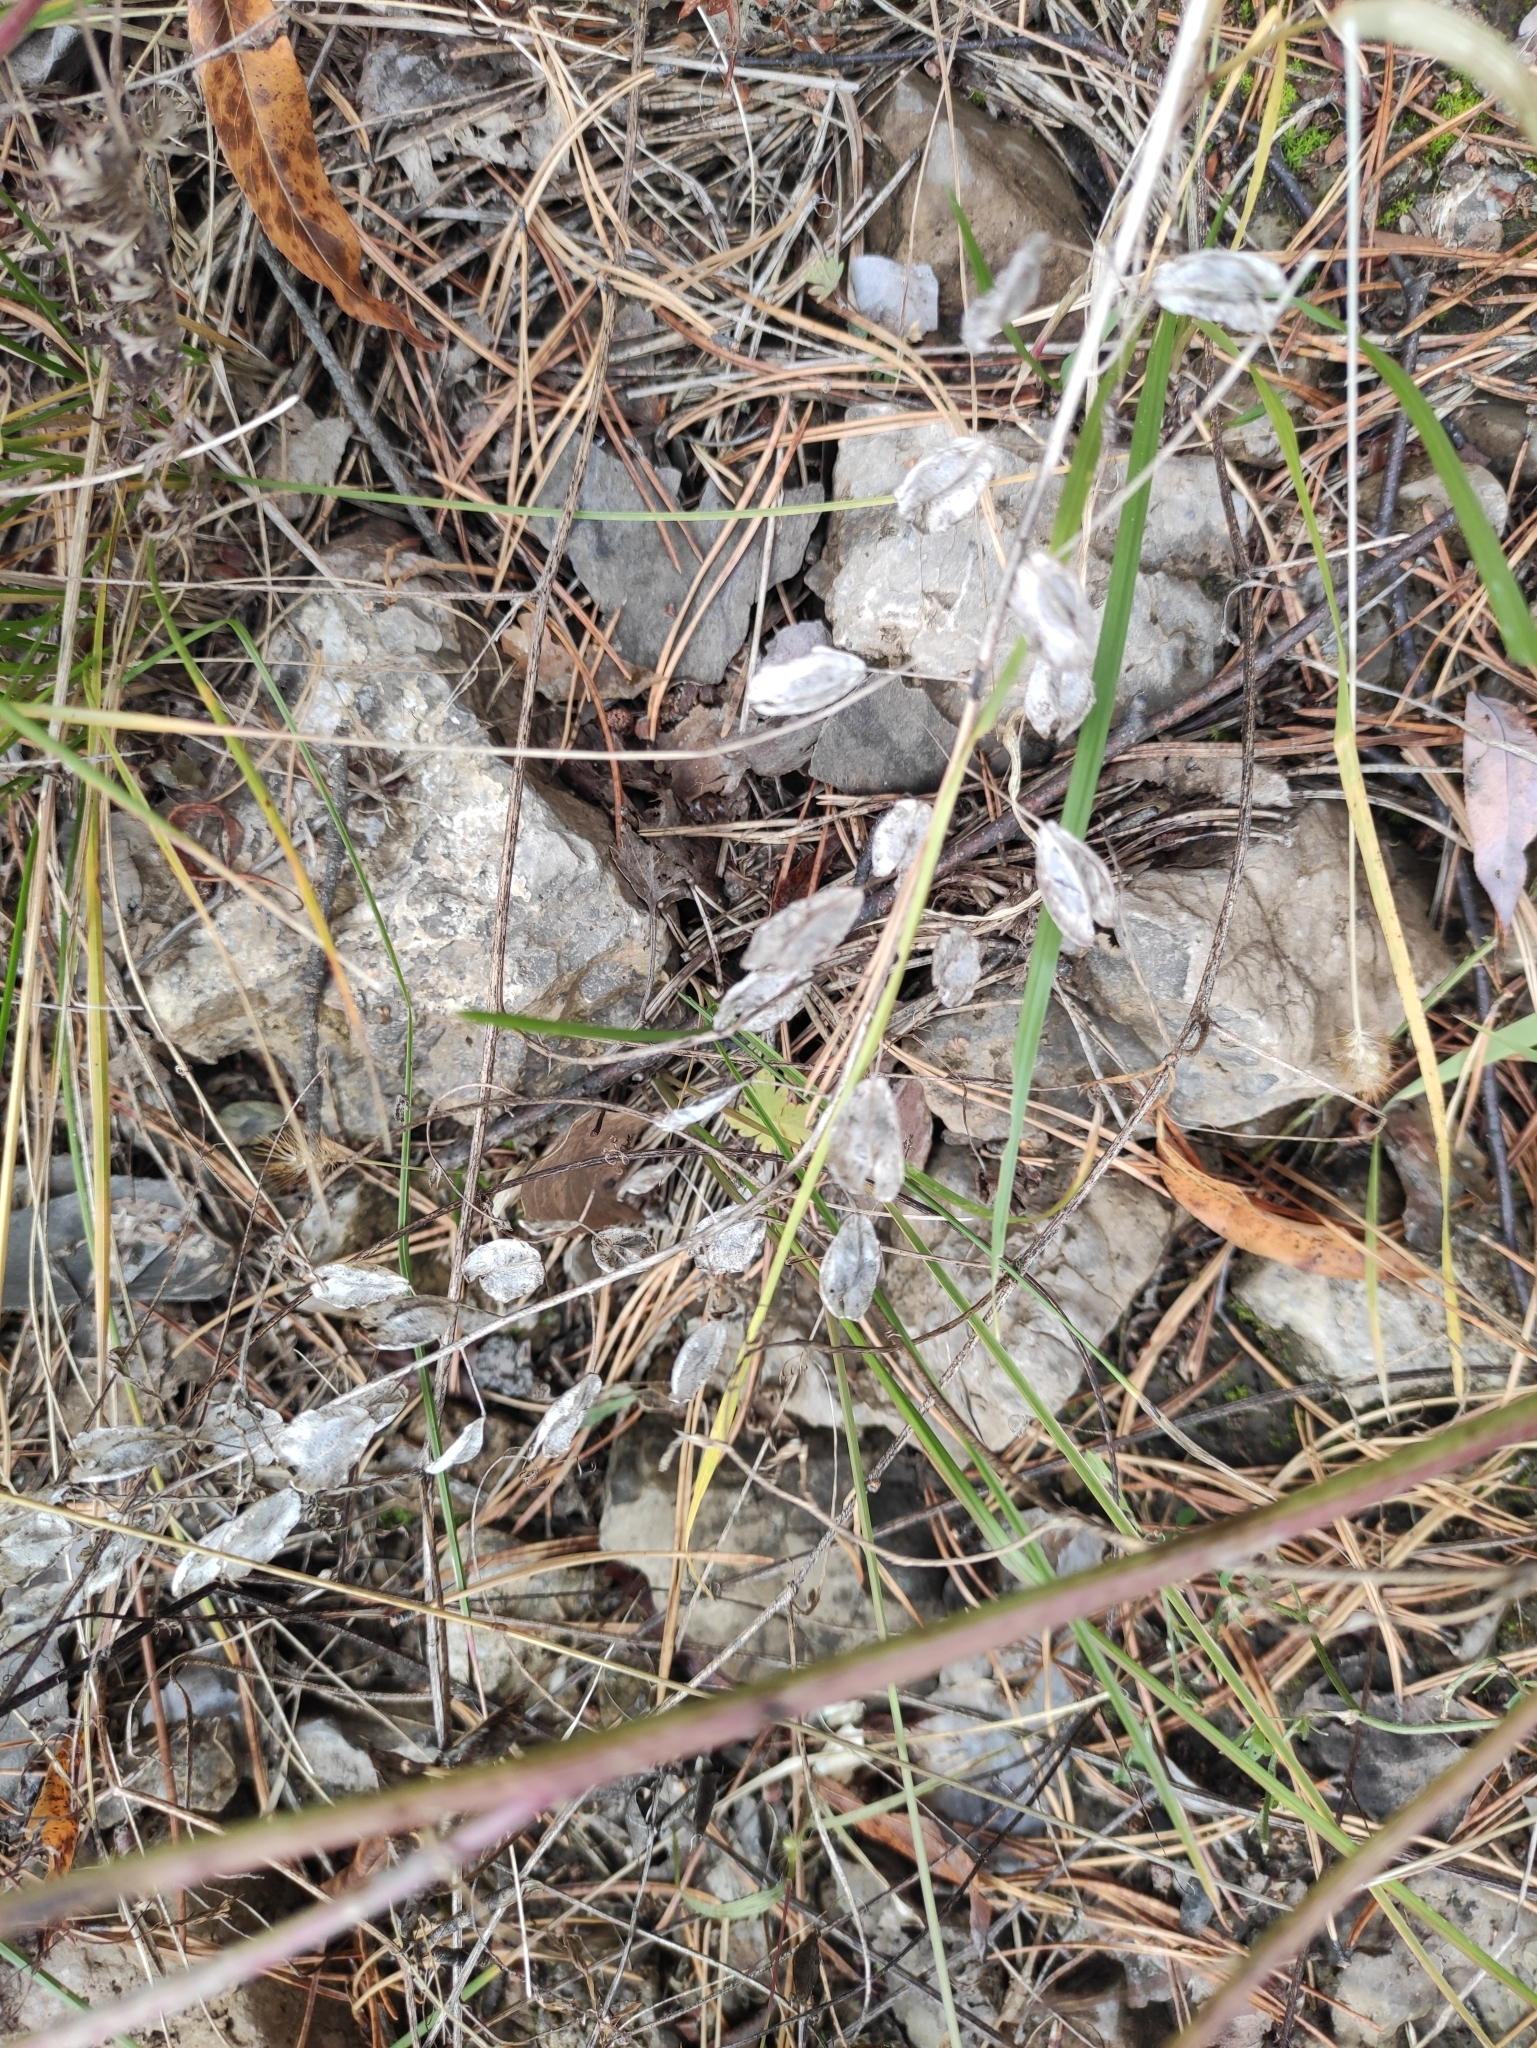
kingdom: Plantae
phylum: Tracheophyta
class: Magnoliopsida
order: Brassicales
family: Brassicaceae
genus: Thlaspi
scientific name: Thlaspi arvense
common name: Field pennycress
